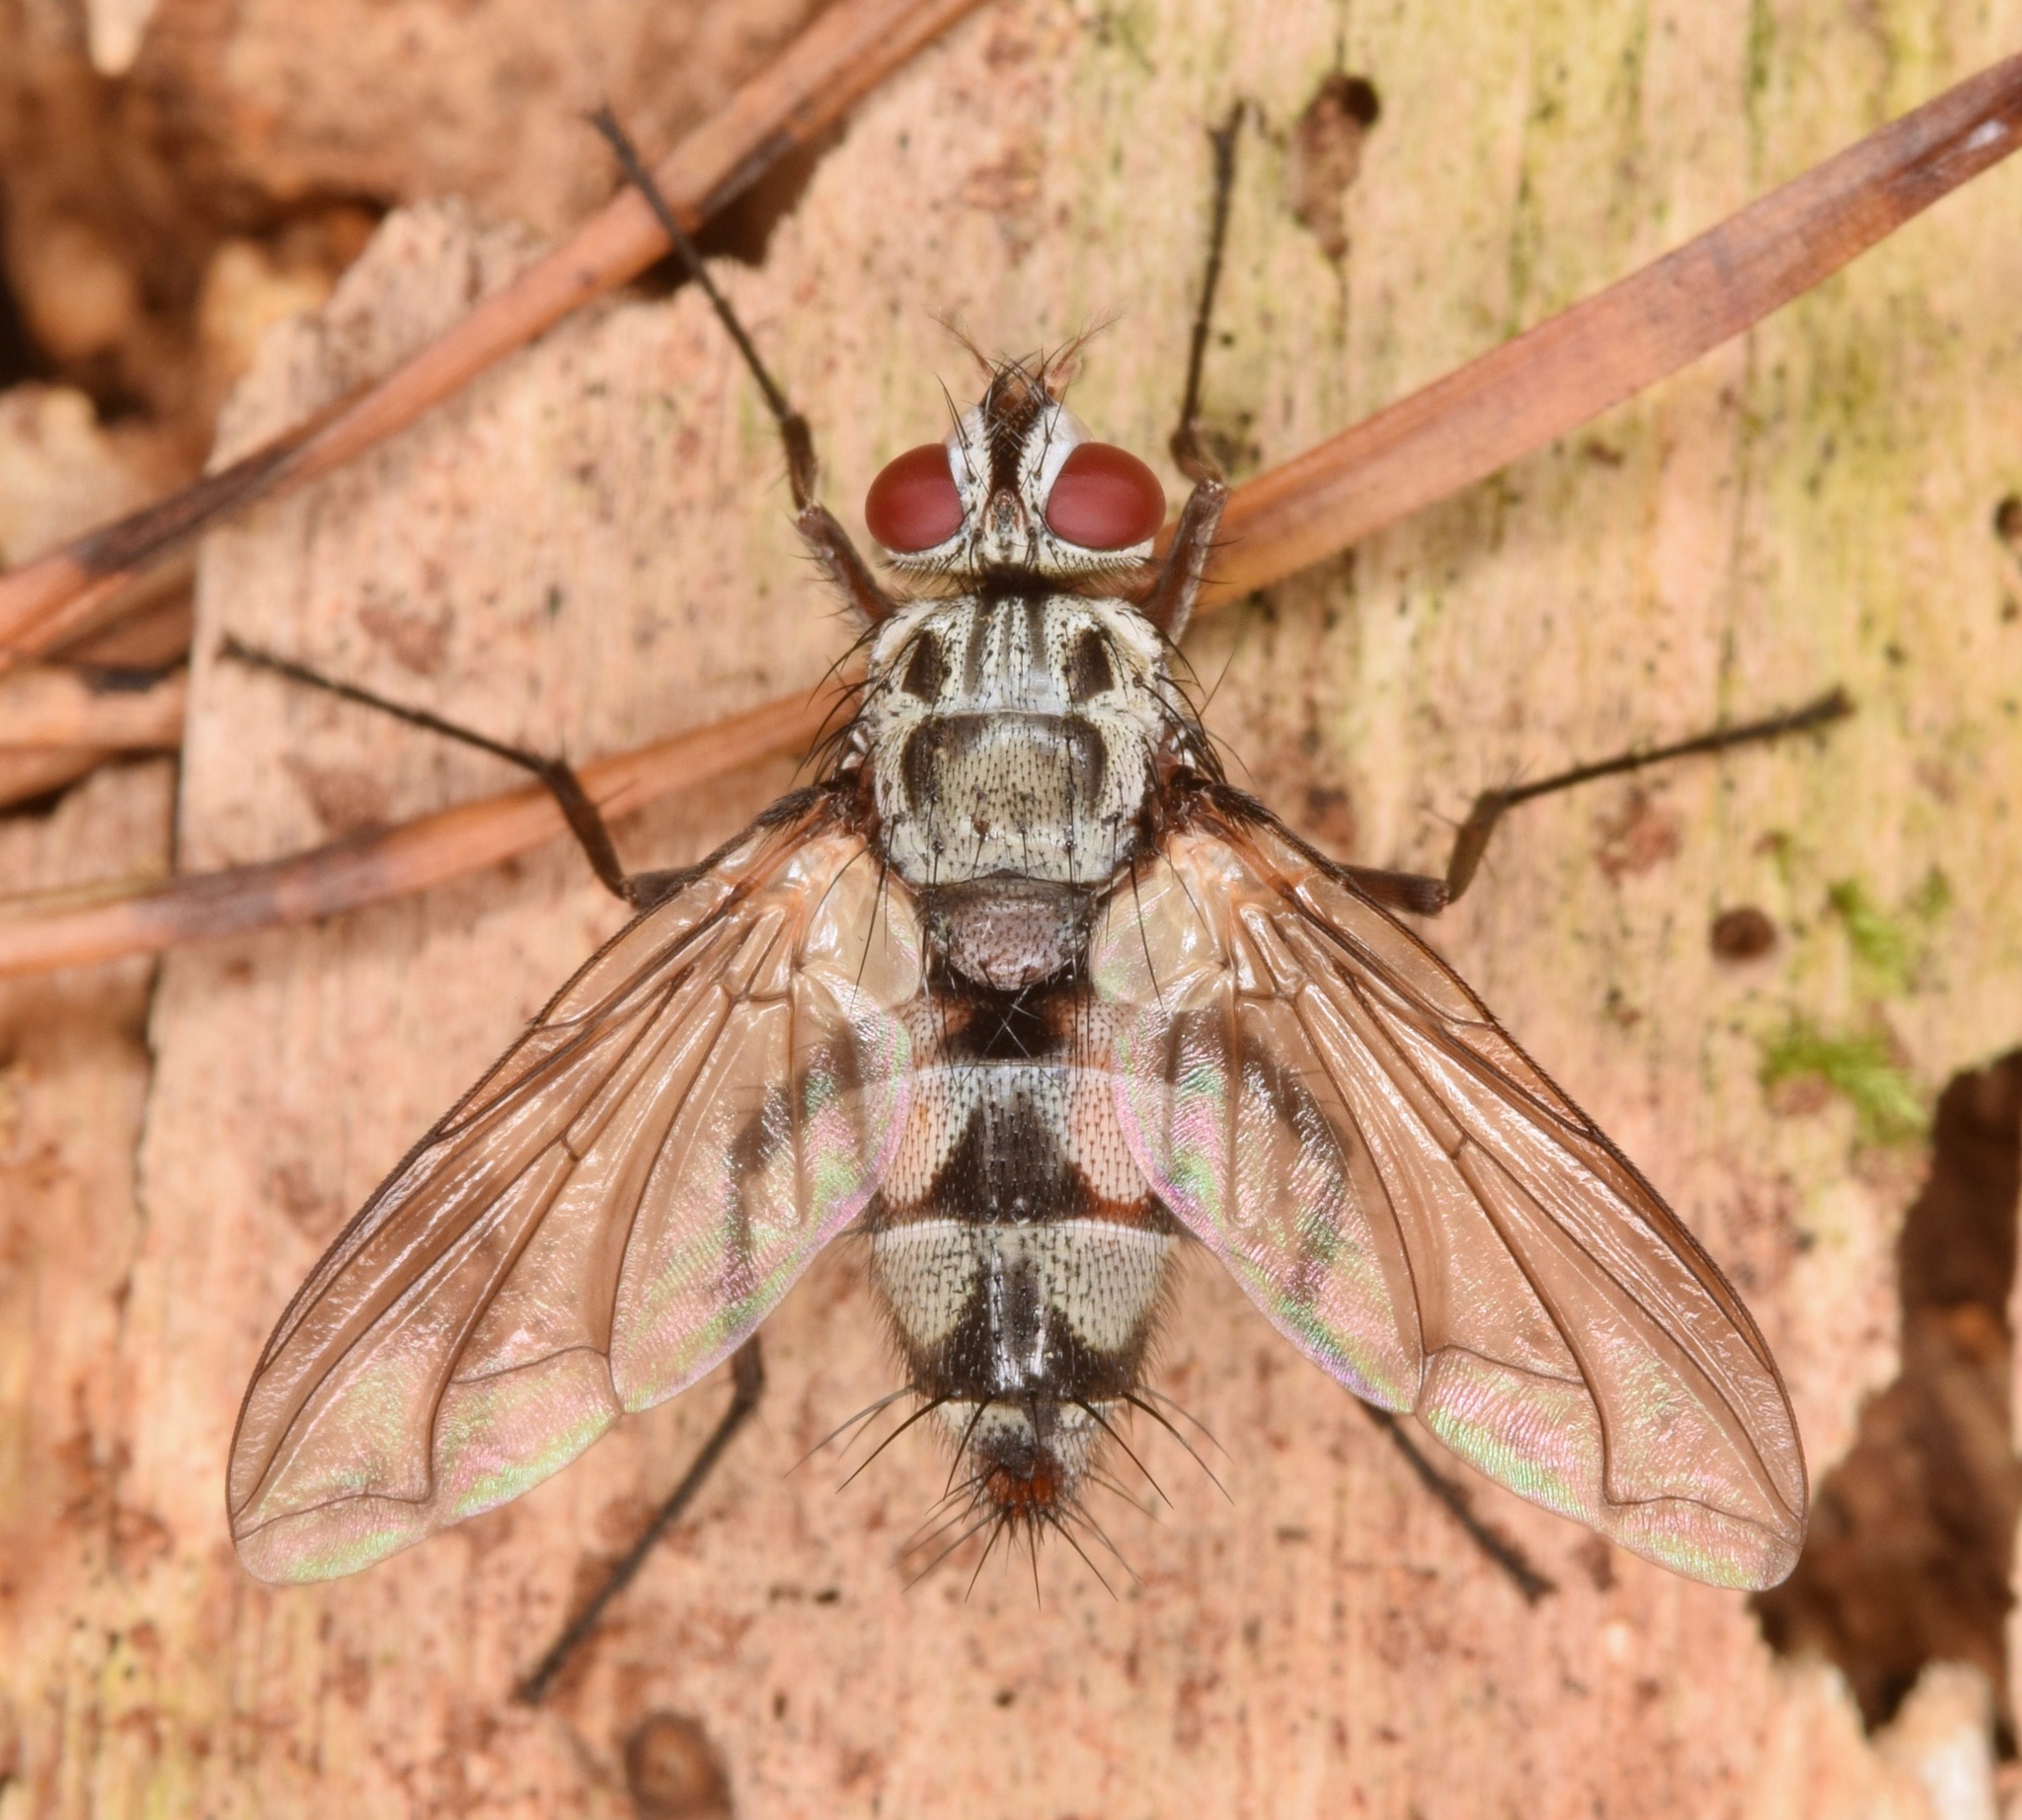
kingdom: Animalia
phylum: Arthropoda
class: Insecta
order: Diptera
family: Tachinidae
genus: Zelia
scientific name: Zelia
